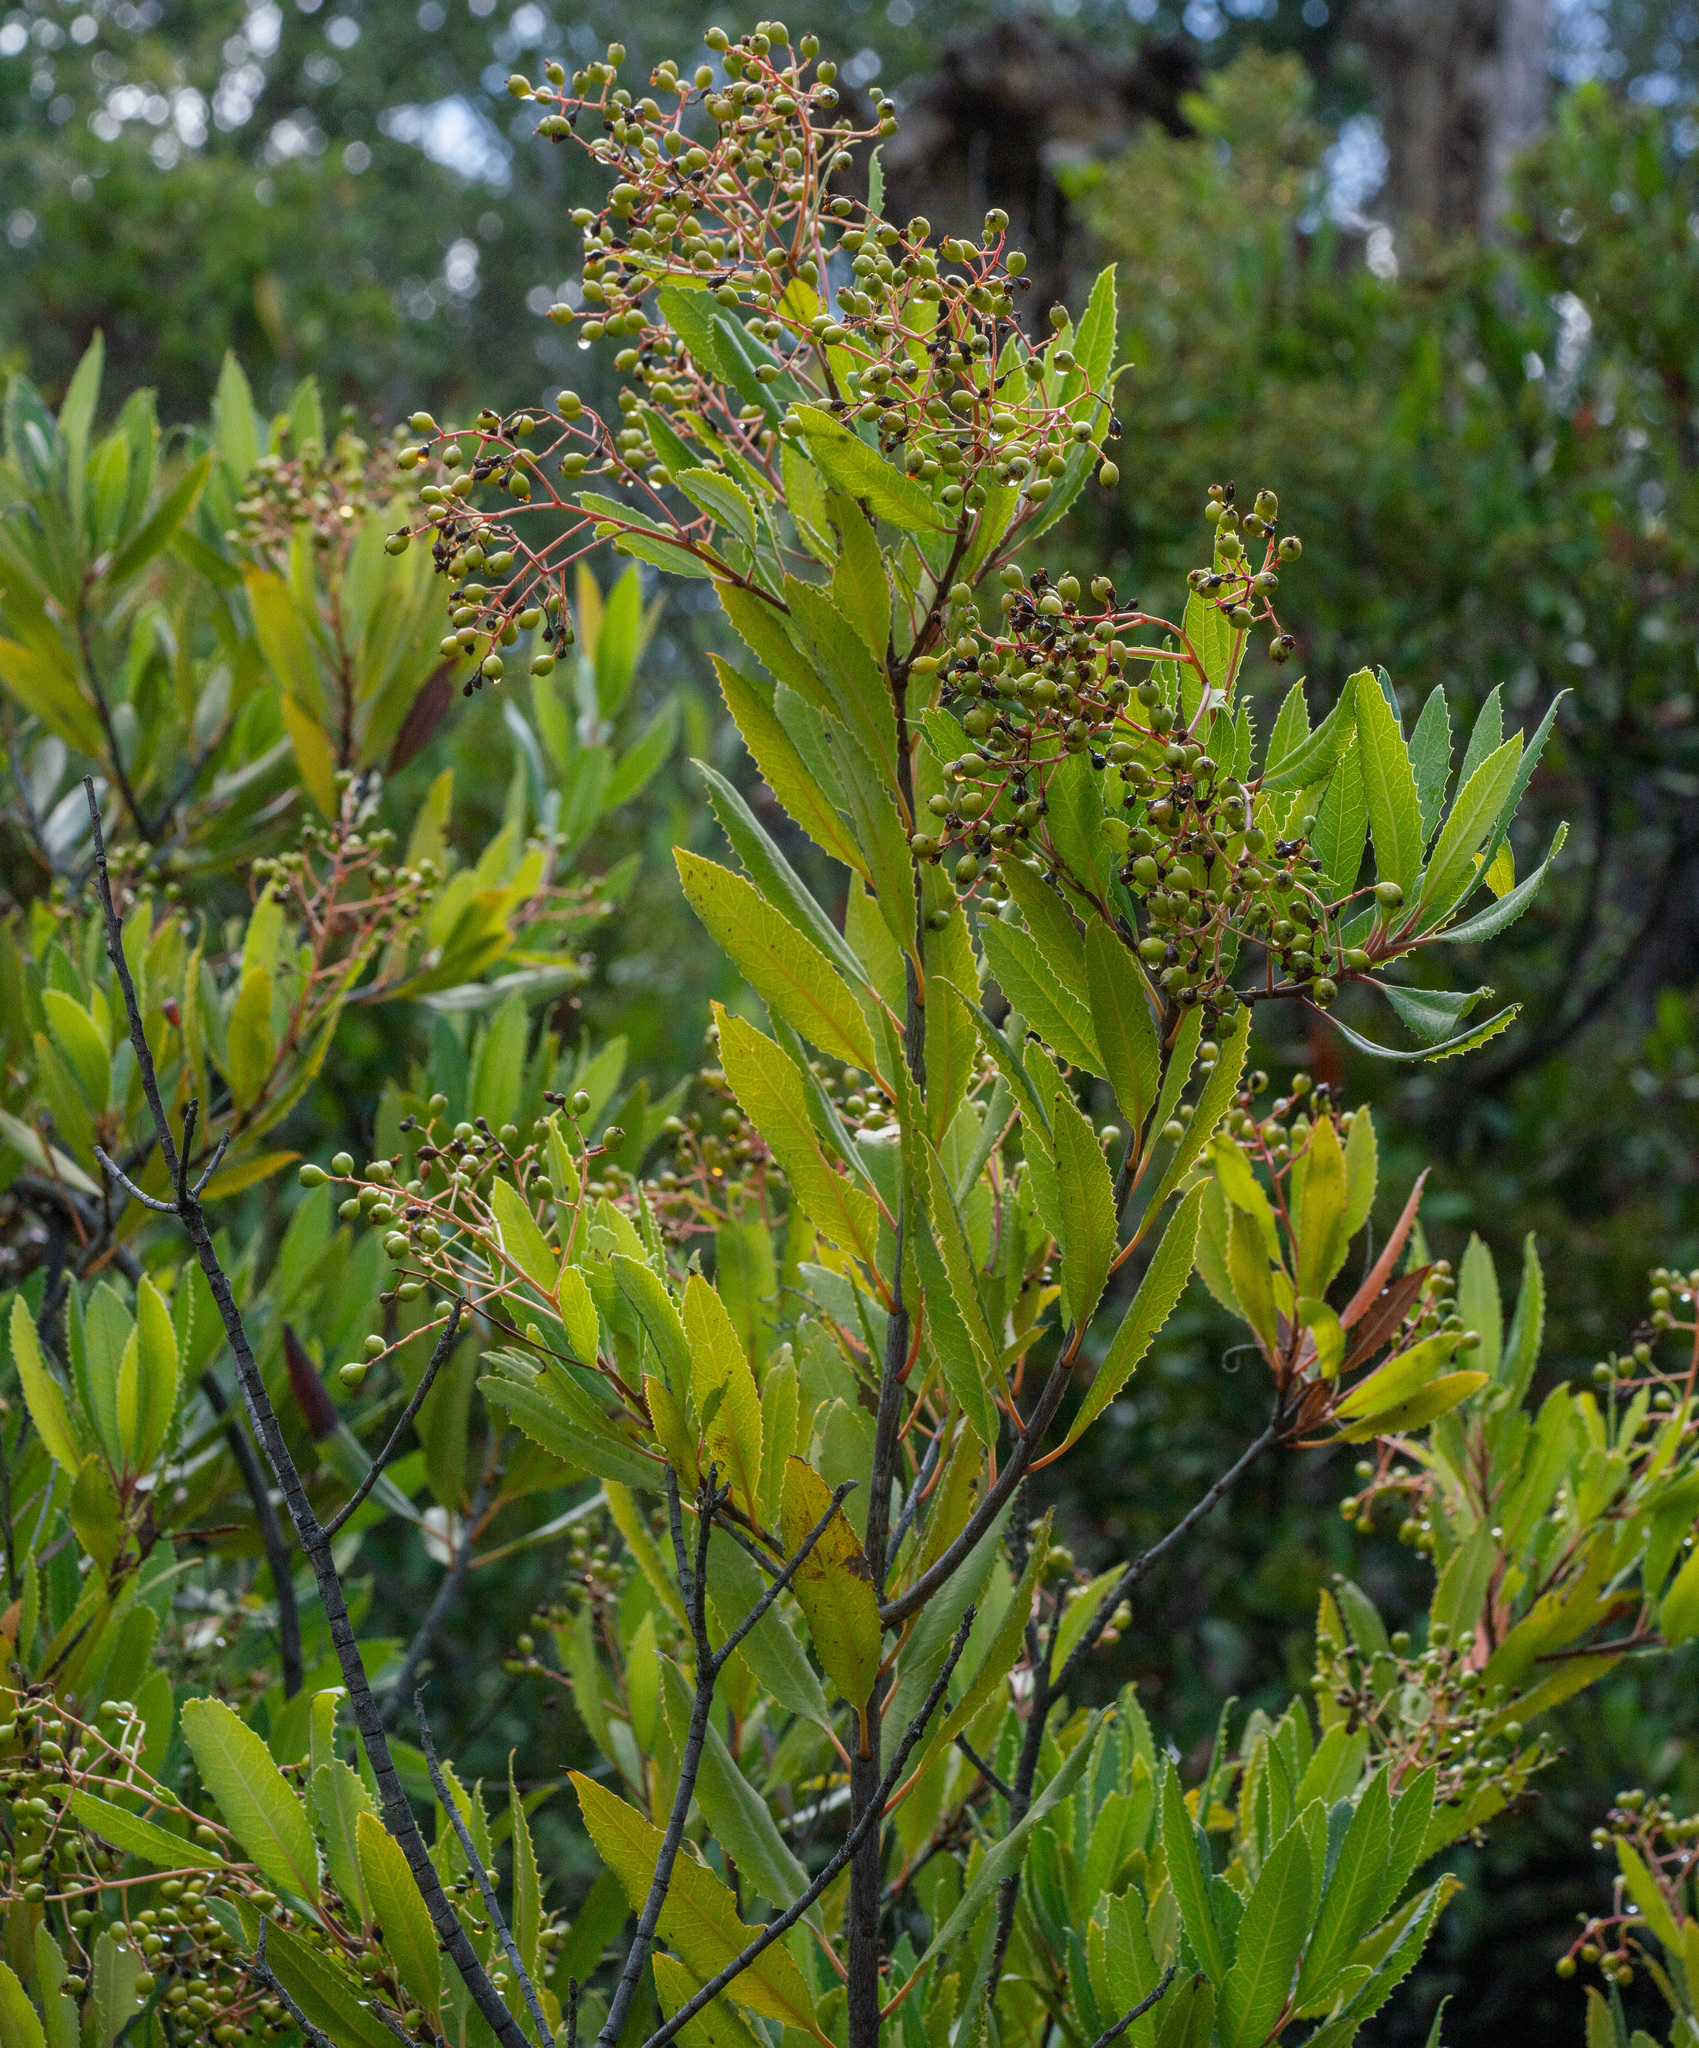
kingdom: Plantae
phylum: Tracheophyta
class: Magnoliopsida
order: Rosales
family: Rosaceae
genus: Heteromeles
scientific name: Heteromeles arbutifolia
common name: California-holly
